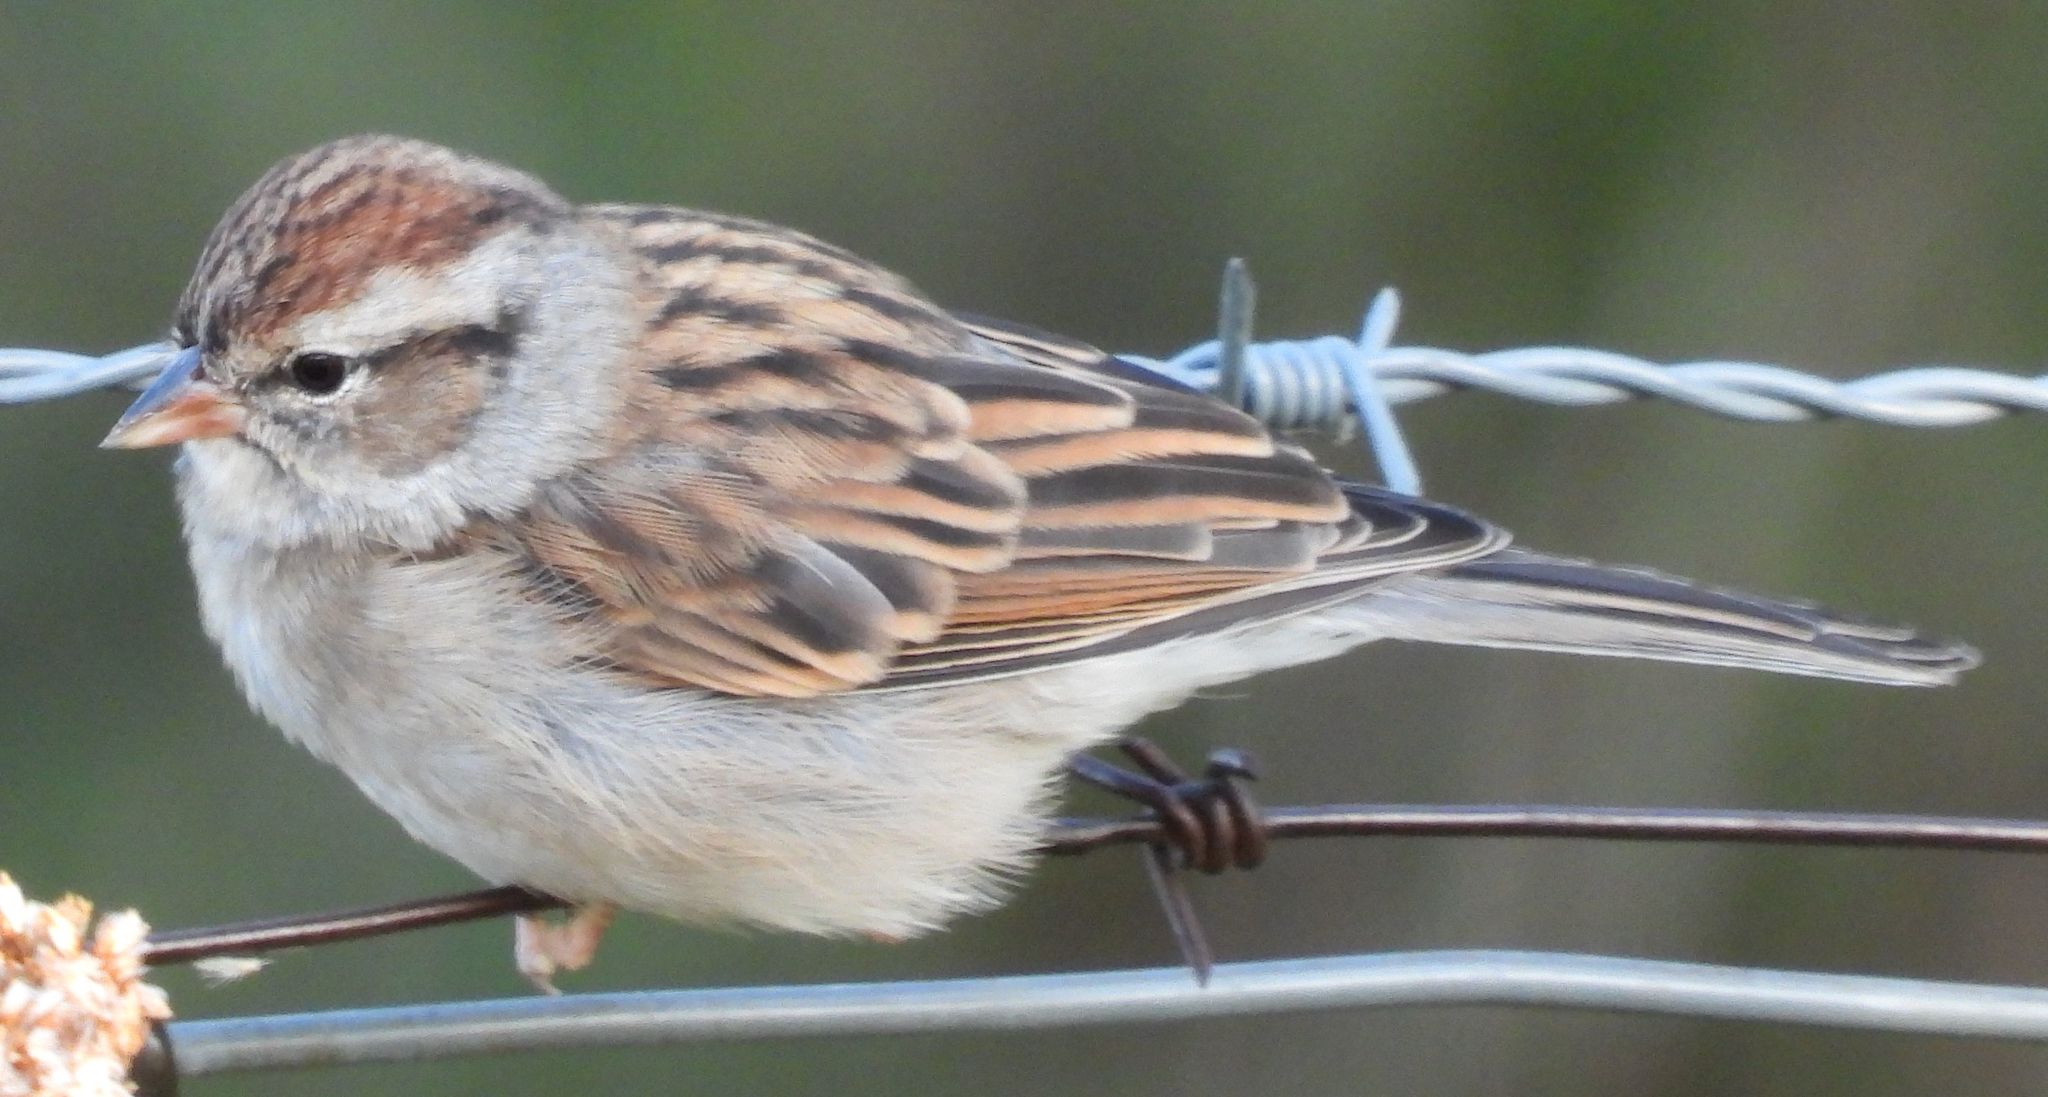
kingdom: Animalia
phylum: Chordata
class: Aves
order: Passeriformes
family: Passerellidae
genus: Spizella
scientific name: Spizella passerina
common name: Chipping sparrow
